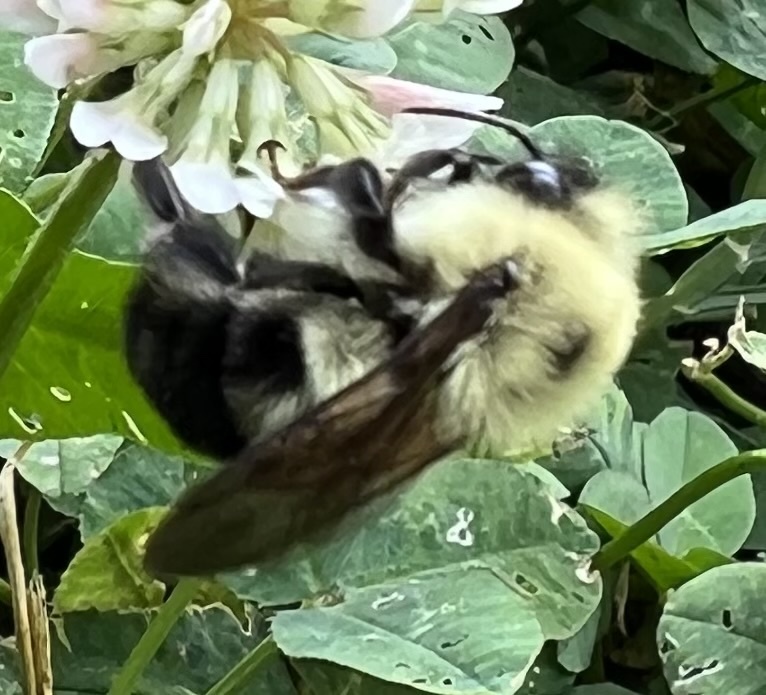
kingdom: Animalia
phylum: Arthropoda
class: Insecta
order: Hymenoptera
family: Apidae
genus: Bombus
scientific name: Bombus bimaculatus
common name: Two-spotted bumble bee
